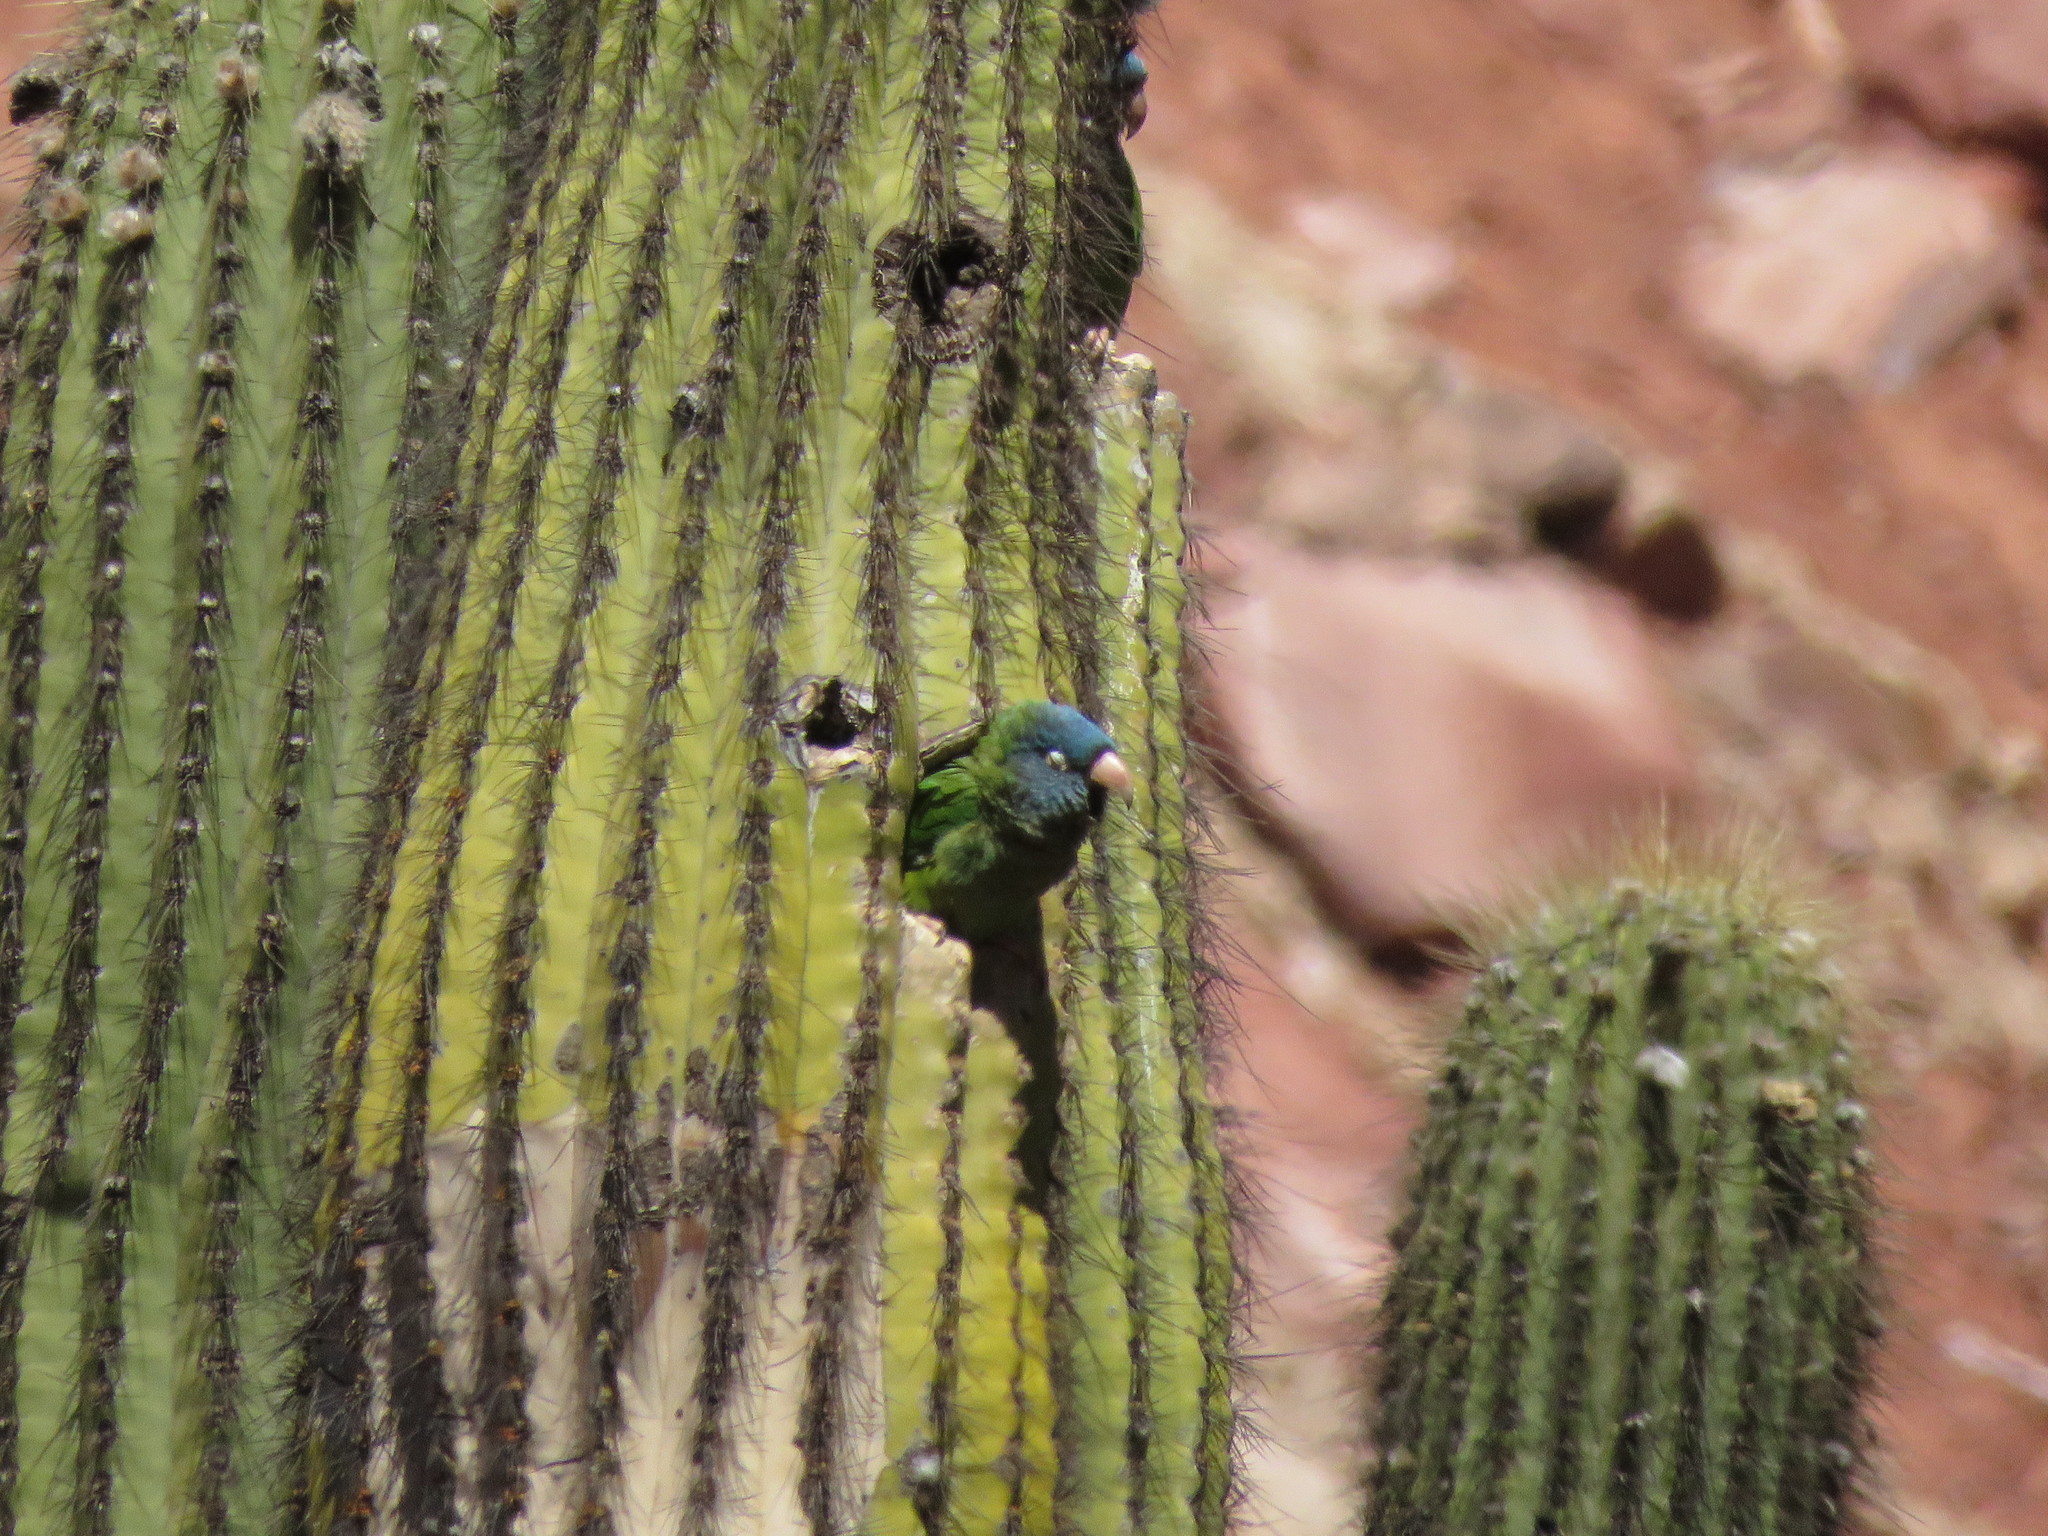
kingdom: Animalia
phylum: Chordata
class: Aves
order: Psittaciformes
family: Psittacidae
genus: Aratinga
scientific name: Aratinga acuticaudata
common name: Blue-crowned parakeet
